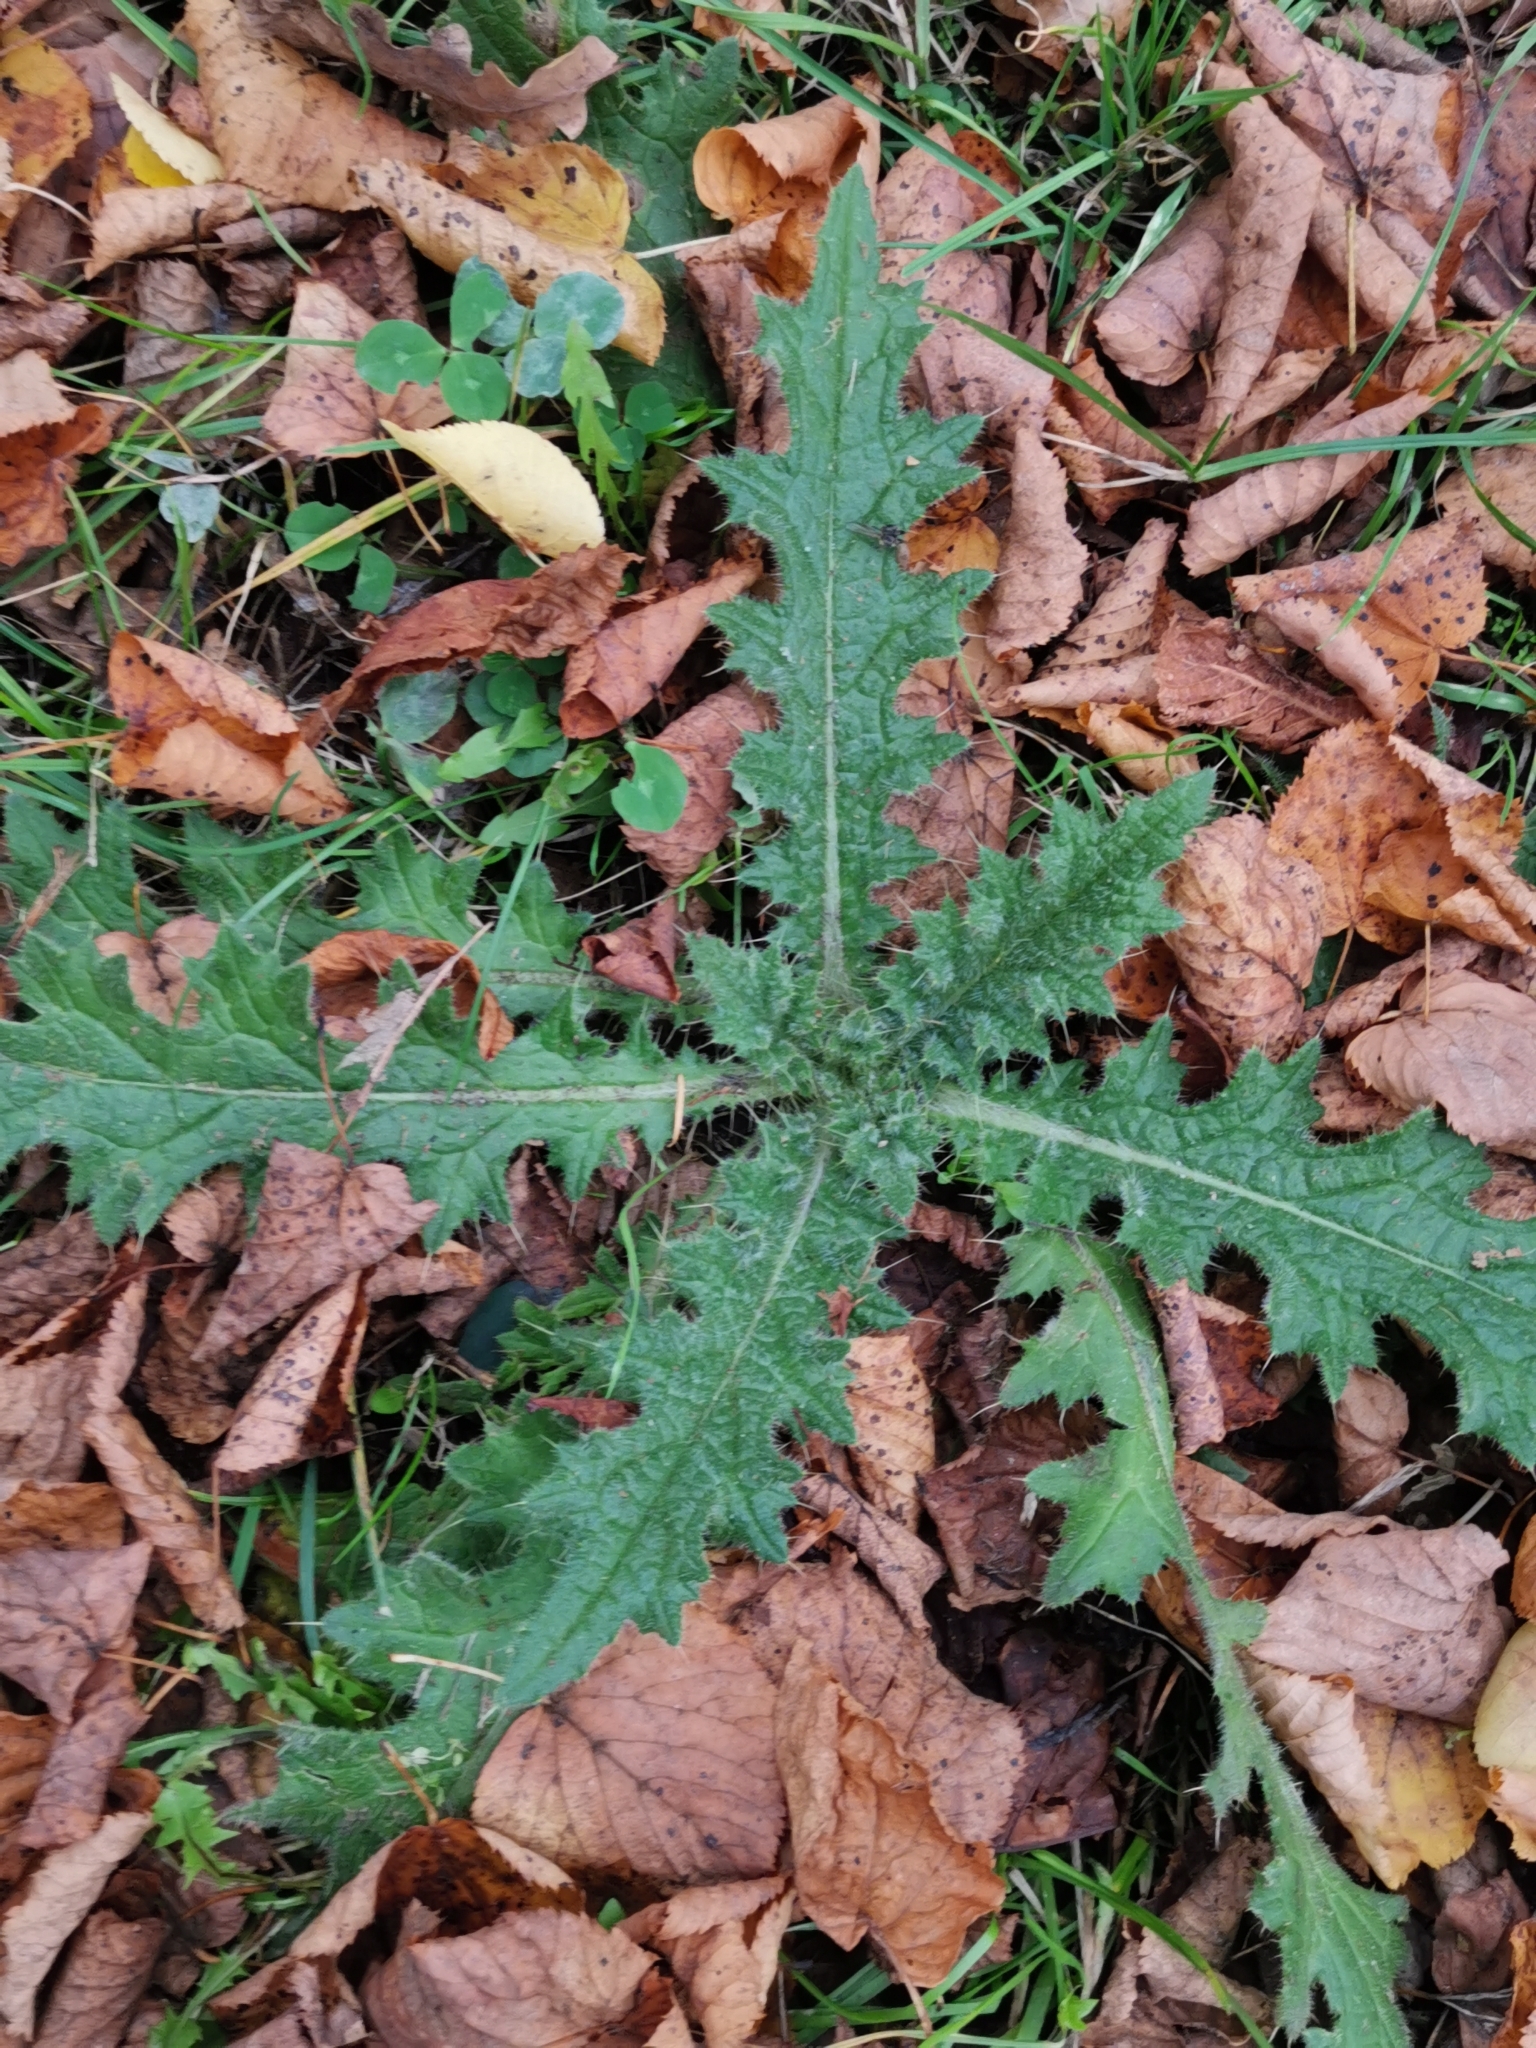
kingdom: Plantae
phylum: Tracheophyta
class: Magnoliopsida
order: Asterales
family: Asteraceae
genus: Cirsium
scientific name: Cirsium vulgare
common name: Bull thistle
